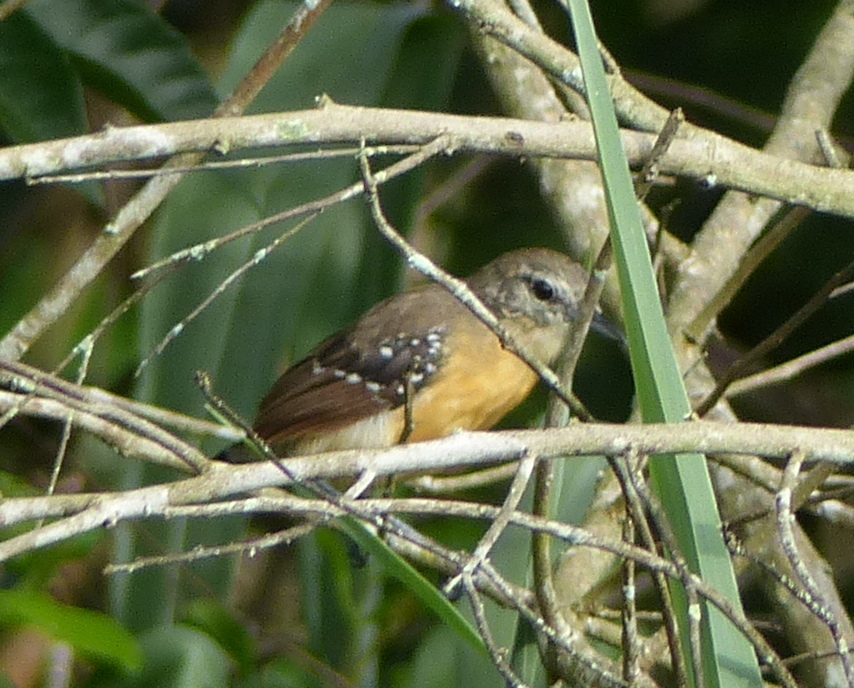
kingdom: Animalia
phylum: Chordata
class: Aves
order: Passeriformes
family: Thamnophilidae
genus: Formicivora
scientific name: Formicivora grisea
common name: Southern white-fringed antwren
